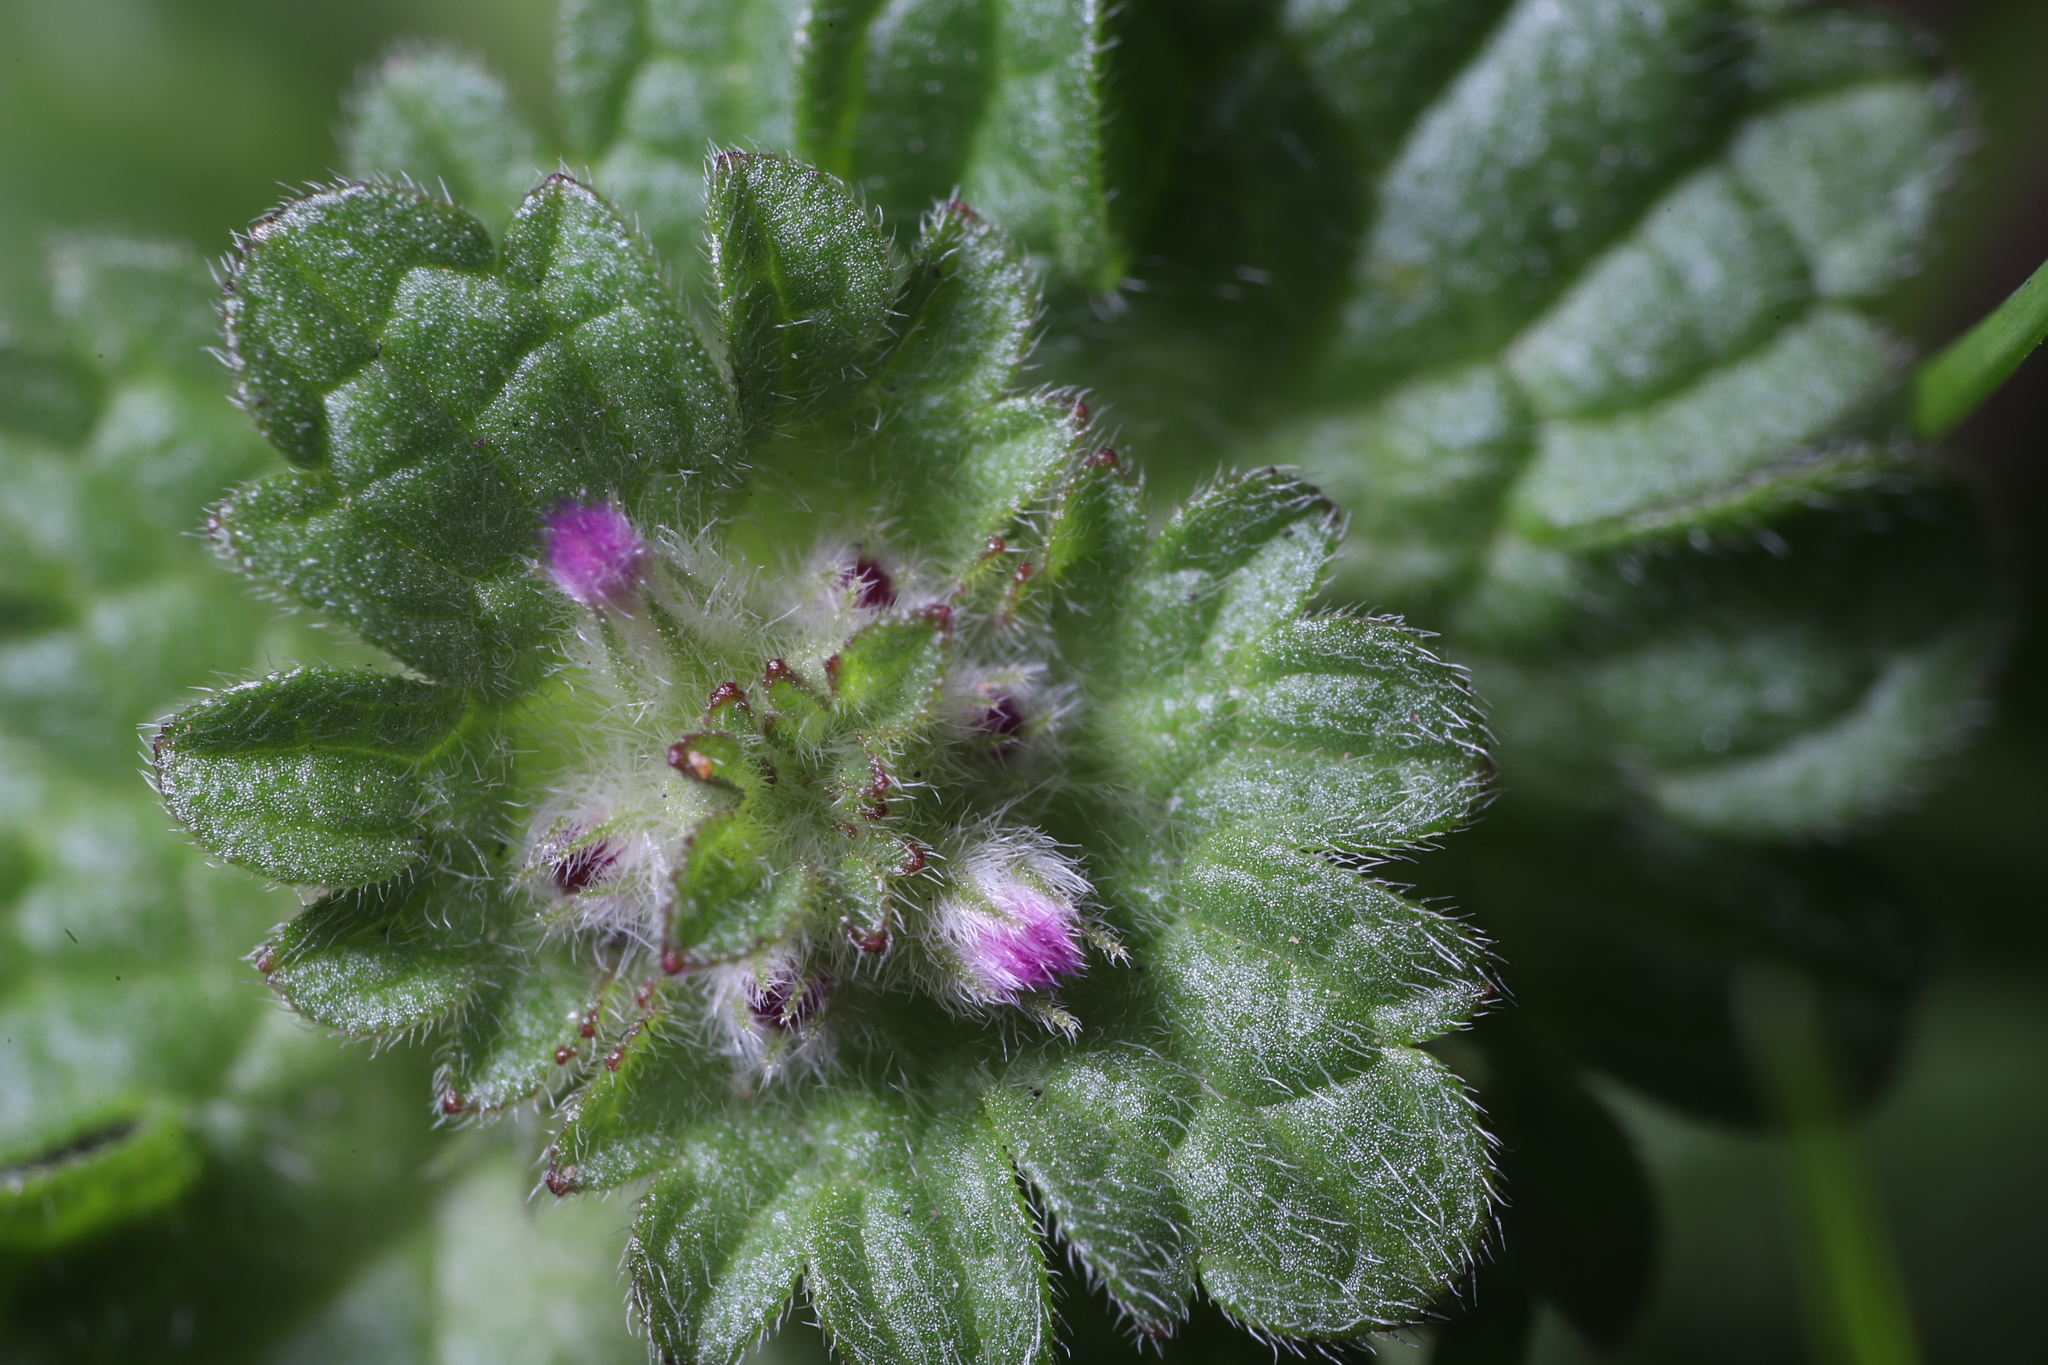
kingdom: Plantae
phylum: Tracheophyta
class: Magnoliopsida
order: Lamiales
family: Lamiaceae
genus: Lamium
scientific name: Lamium amplexicaule
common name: Henbit dead-nettle
